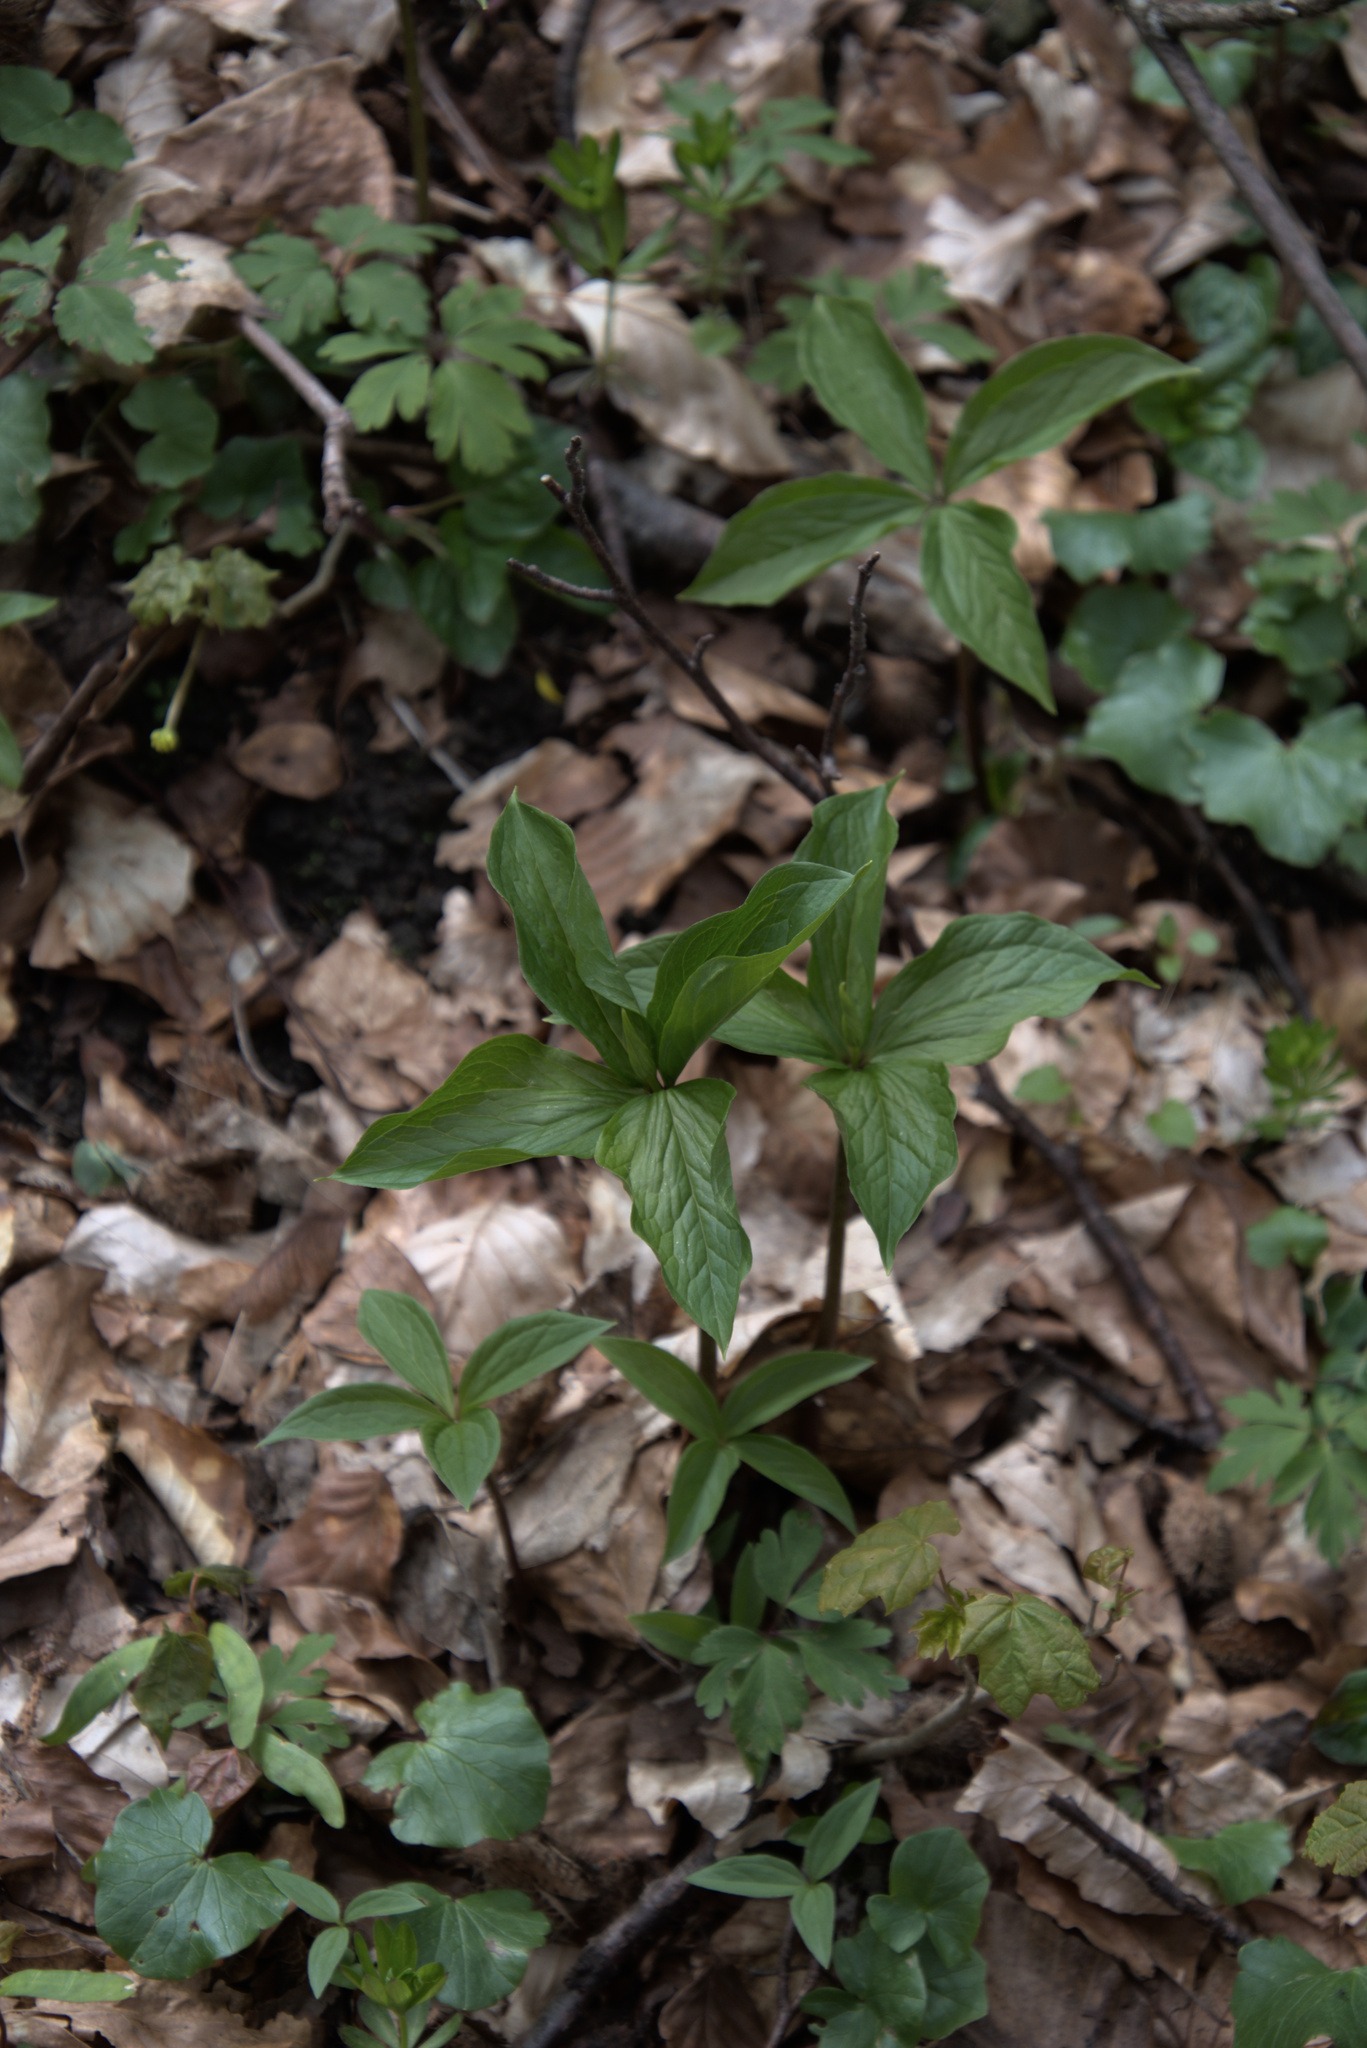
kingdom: Plantae
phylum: Tracheophyta
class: Liliopsida
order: Liliales
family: Melanthiaceae
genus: Paris
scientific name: Paris quadrifolia
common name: Herb-paris
